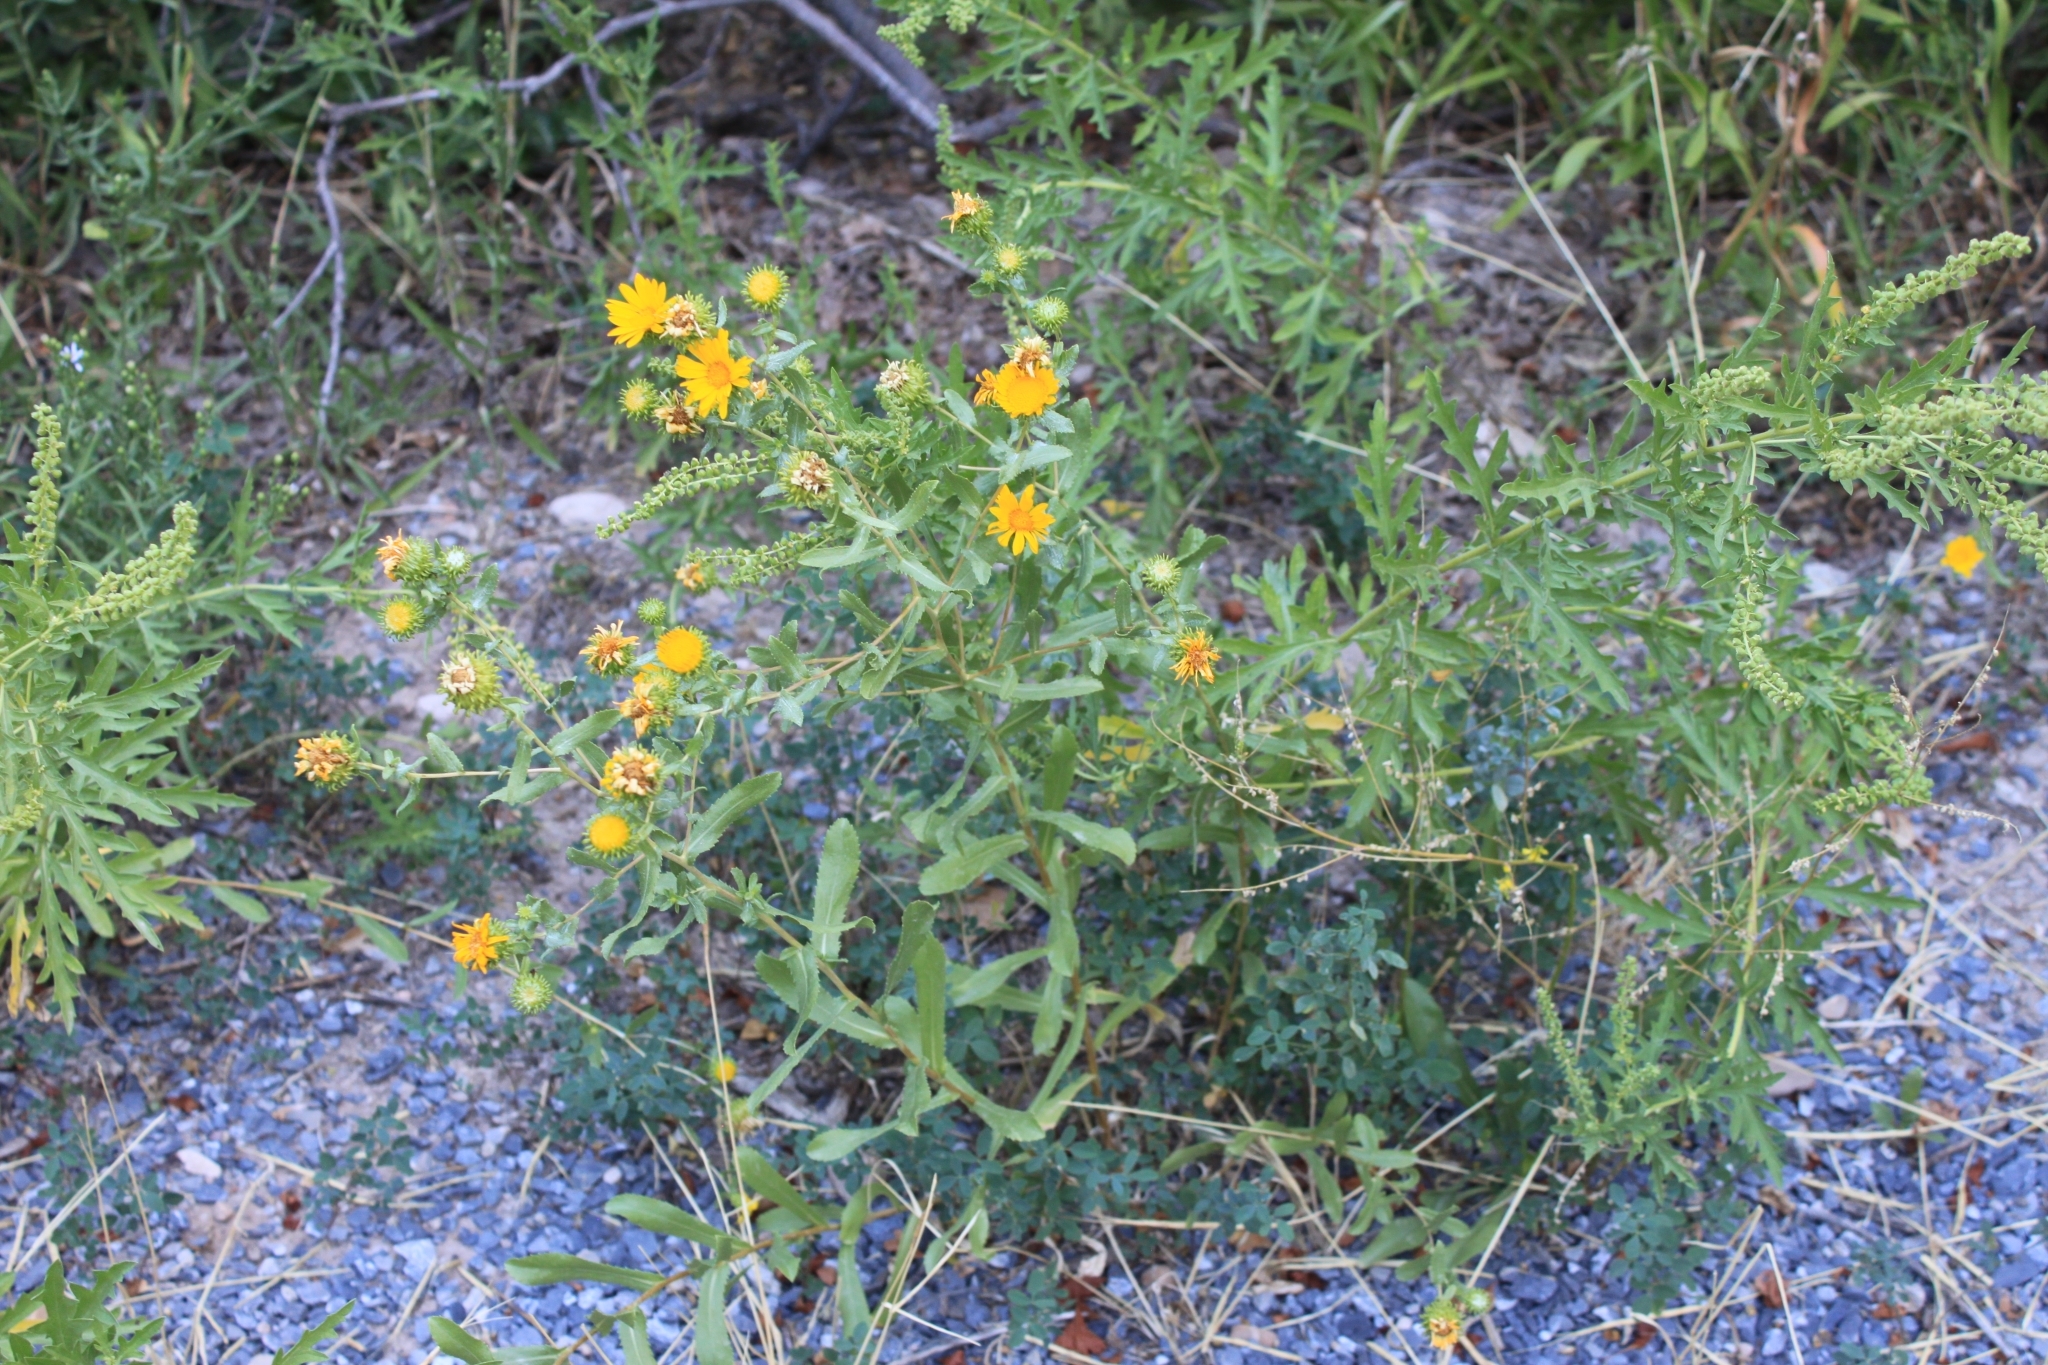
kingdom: Plantae
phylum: Tracheophyta
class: Magnoliopsida
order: Asterales
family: Asteraceae
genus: Grindelia
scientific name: Grindelia squarrosa
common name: Curly-cup gumweed
